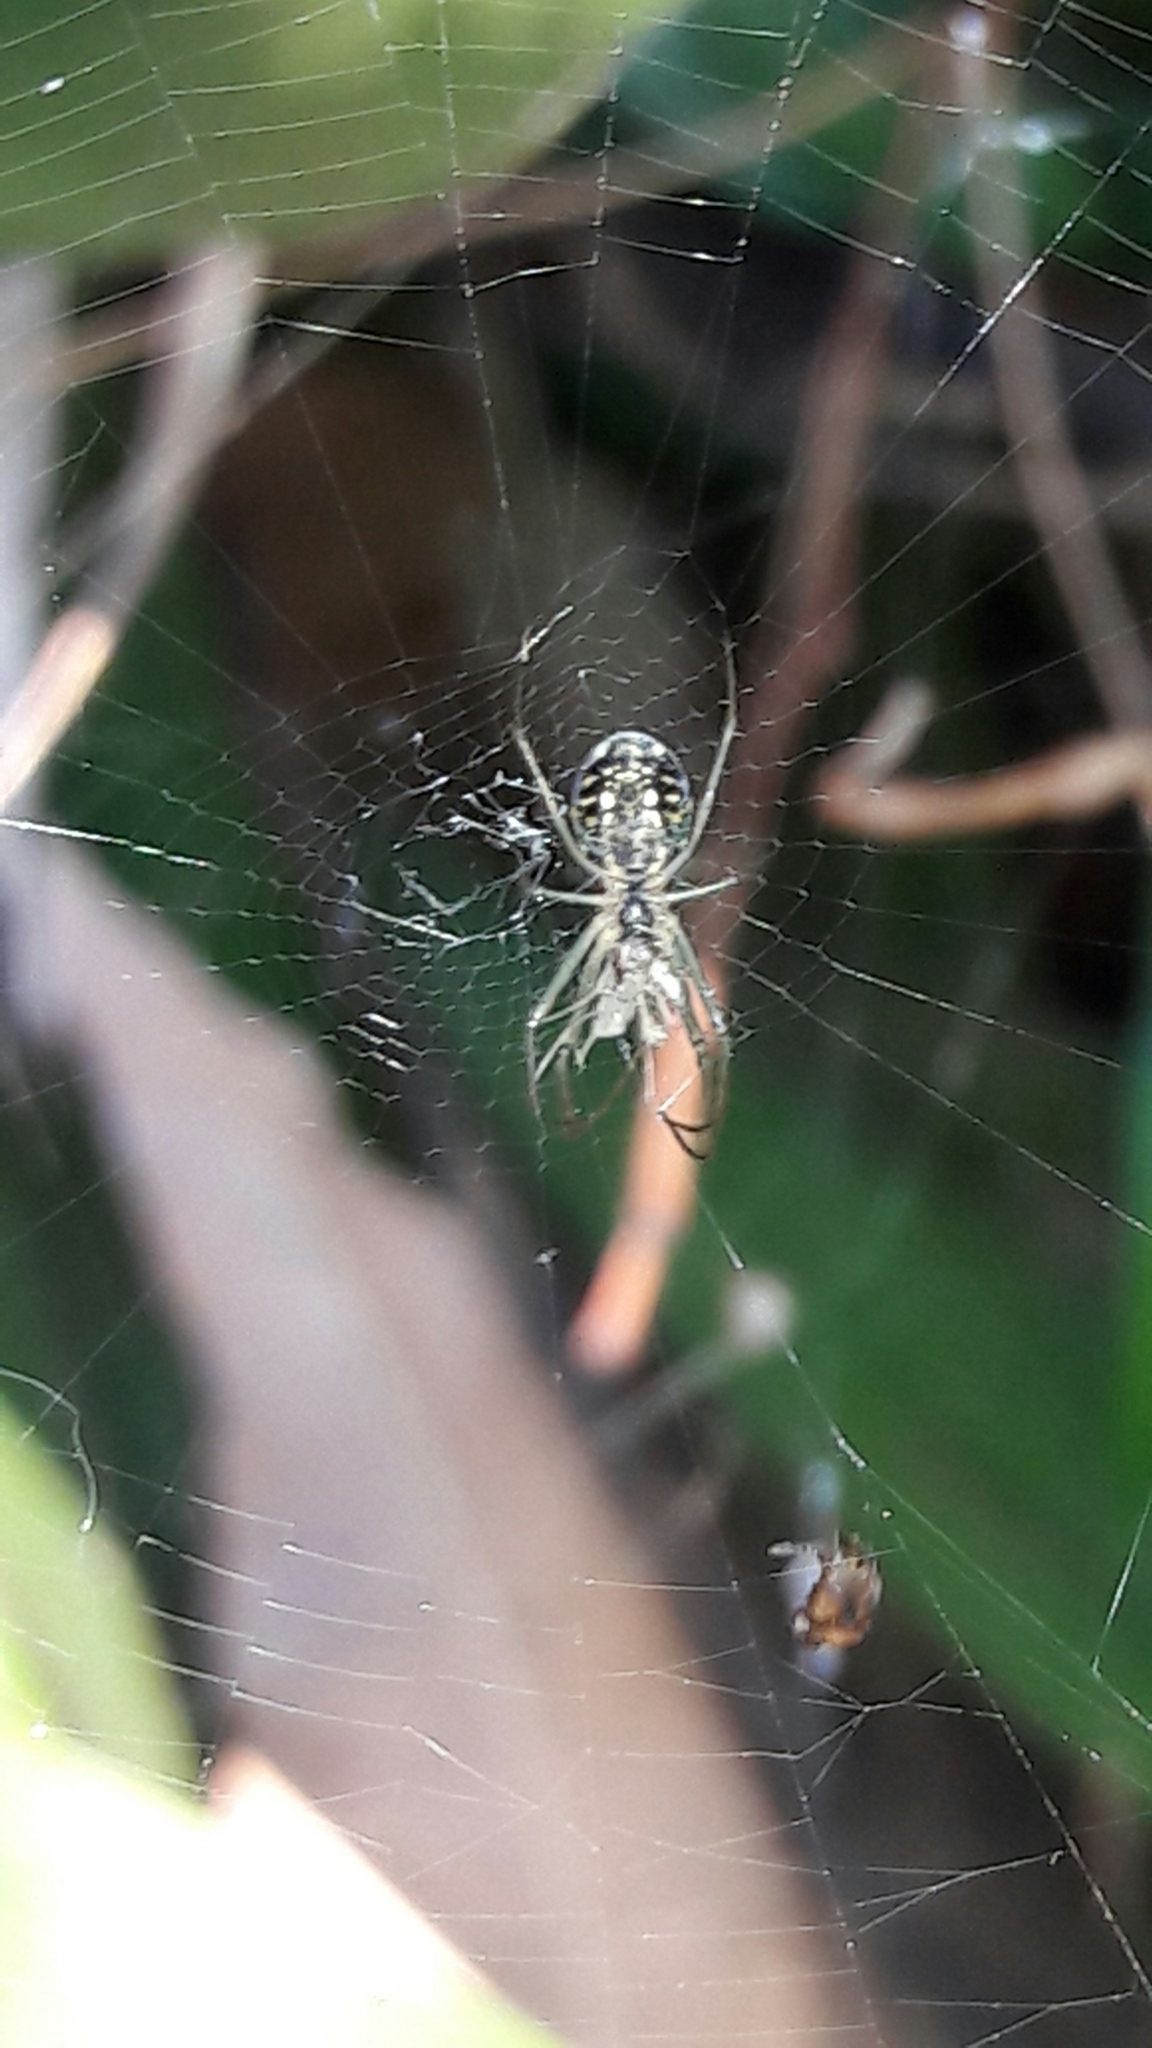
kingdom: Animalia
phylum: Arthropoda
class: Arachnida
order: Araneae
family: Tetragnathidae
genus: Leucauge
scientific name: Leucauge volupis
